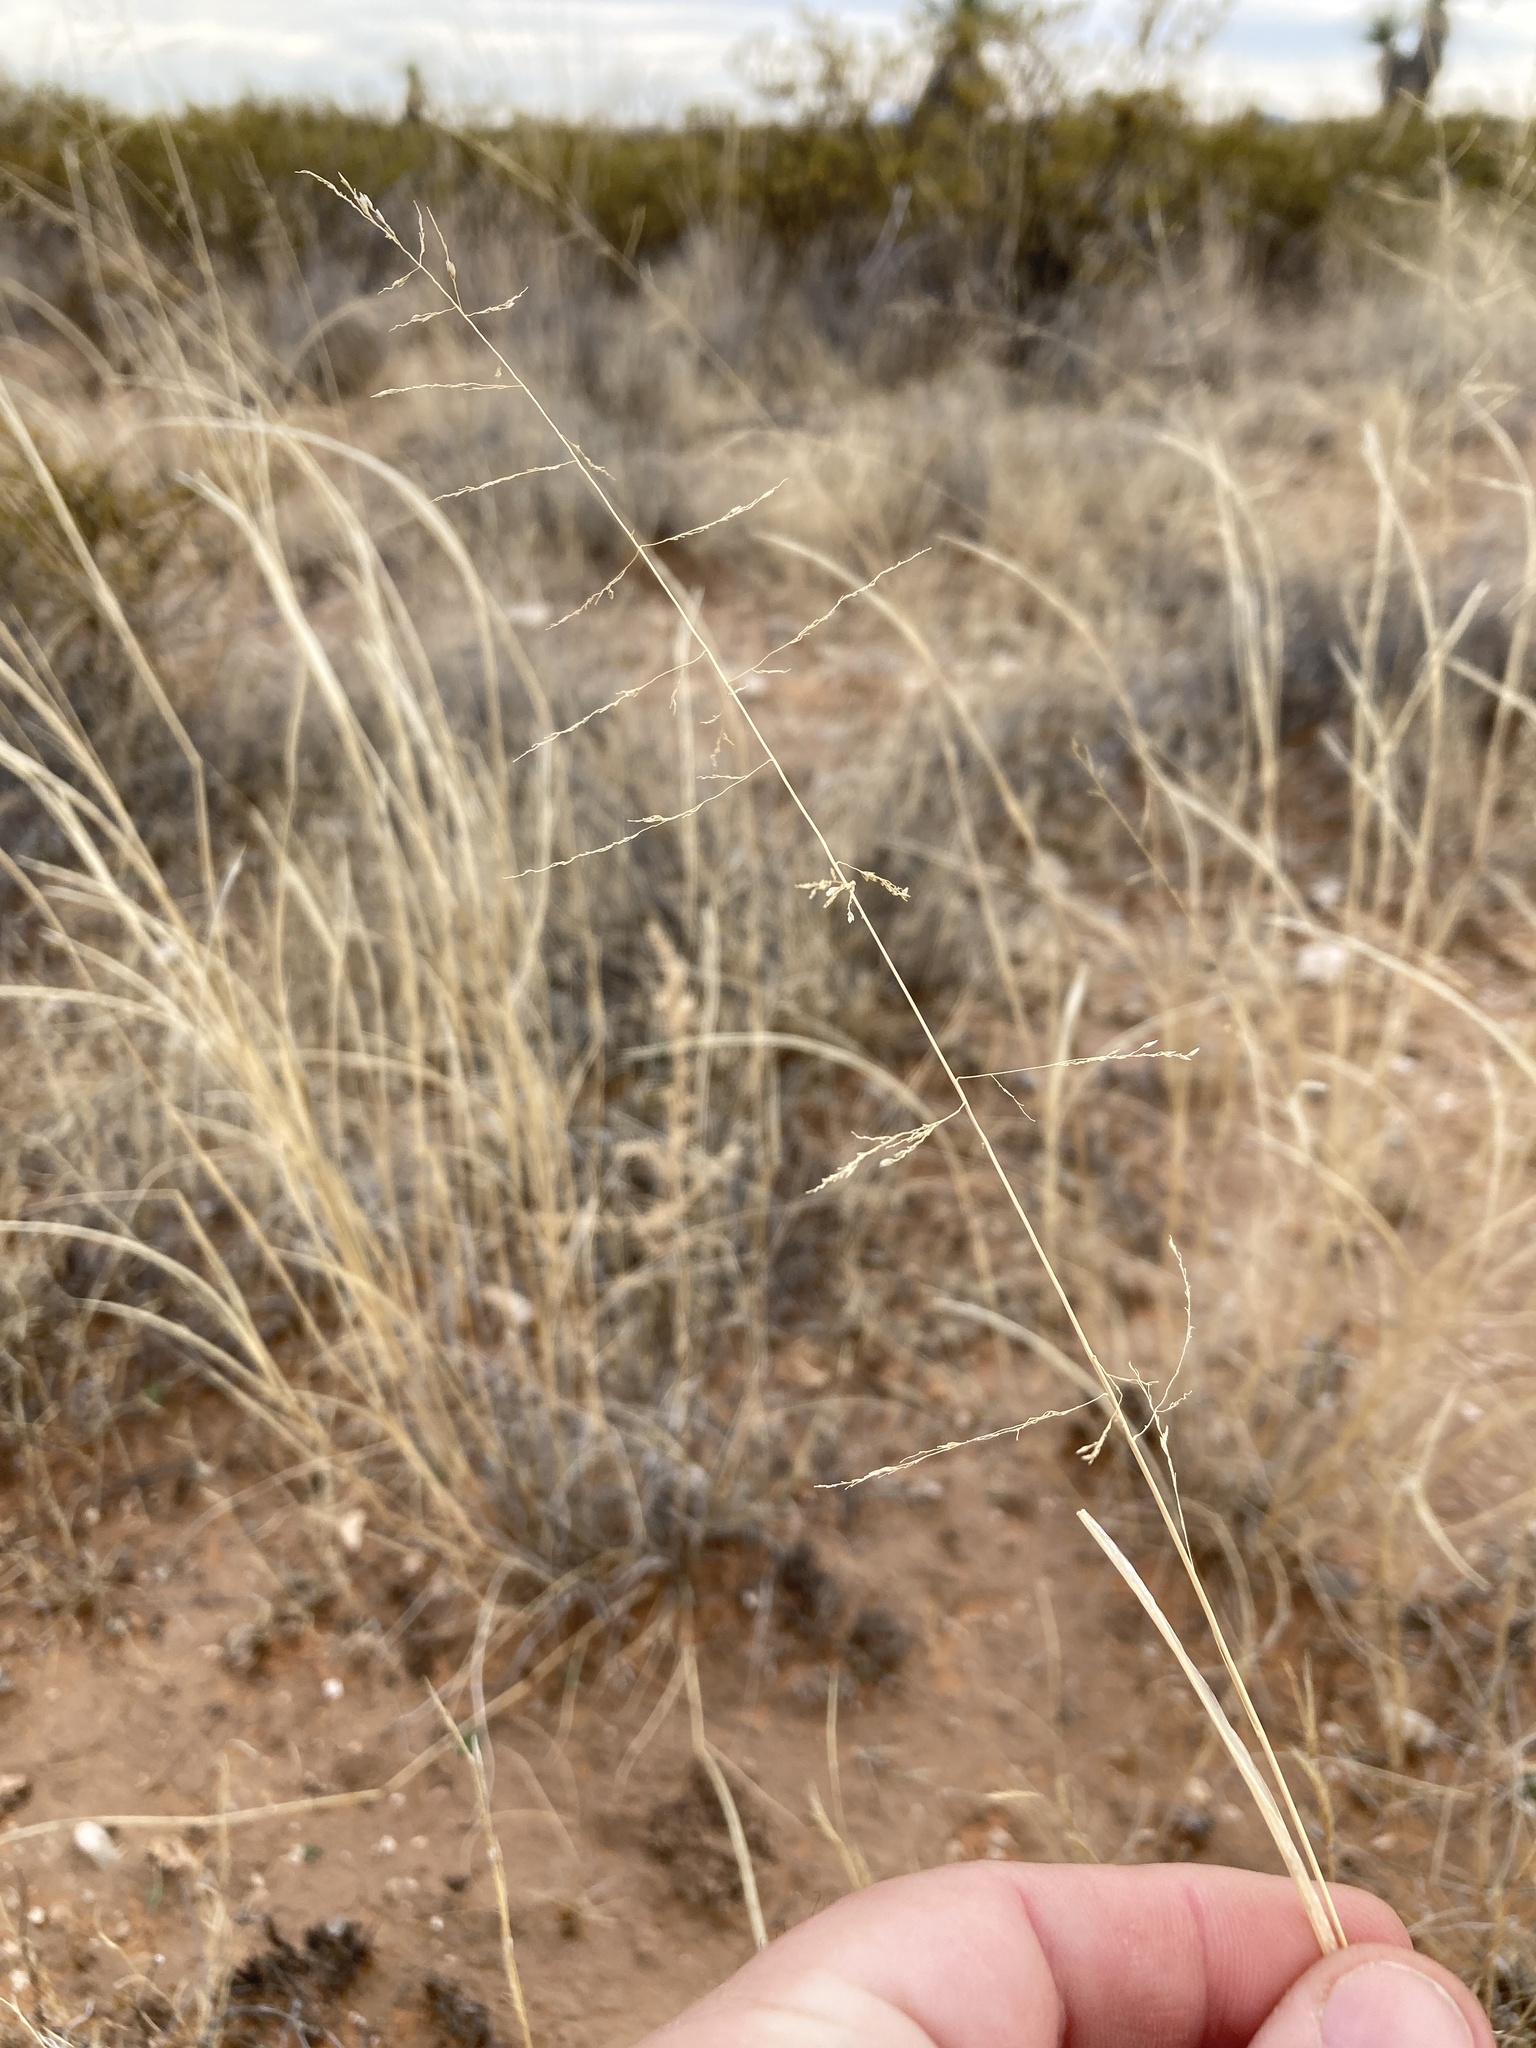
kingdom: Plantae
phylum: Tracheophyta
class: Liliopsida
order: Poales
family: Poaceae
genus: Sporobolus
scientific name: Sporobolus cryptandrus
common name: Sand dropseed
